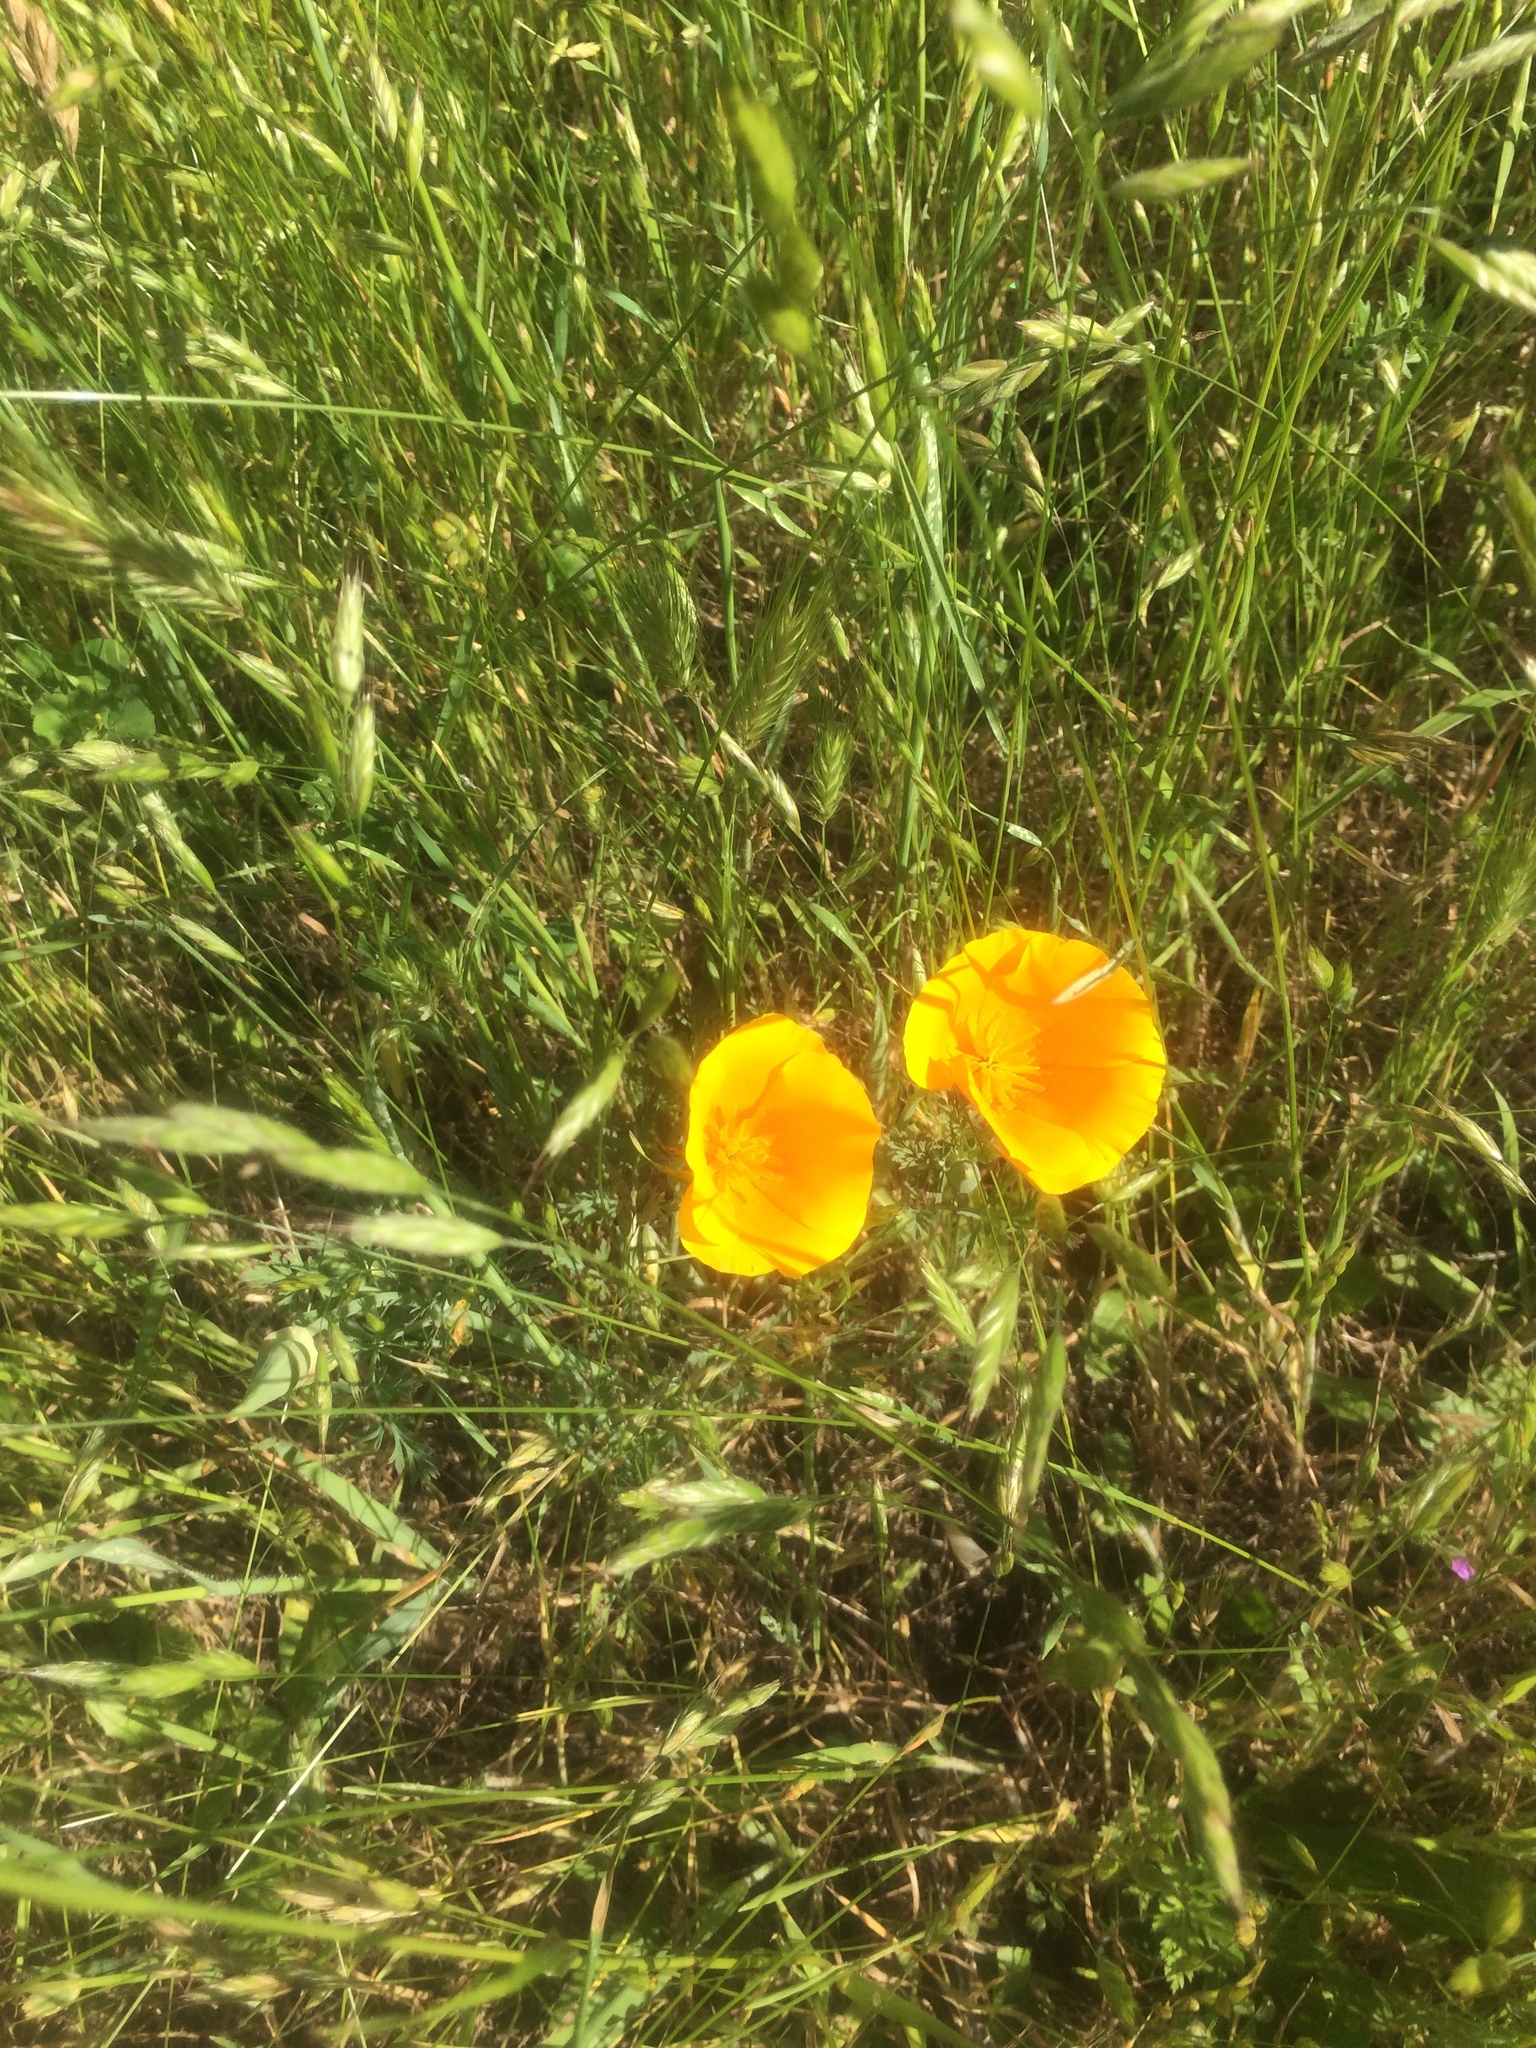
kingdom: Plantae
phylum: Tracheophyta
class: Magnoliopsida
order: Ranunculales
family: Papaveraceae
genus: Eschscholzia
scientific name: Eschscholzia californica
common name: California poppy
